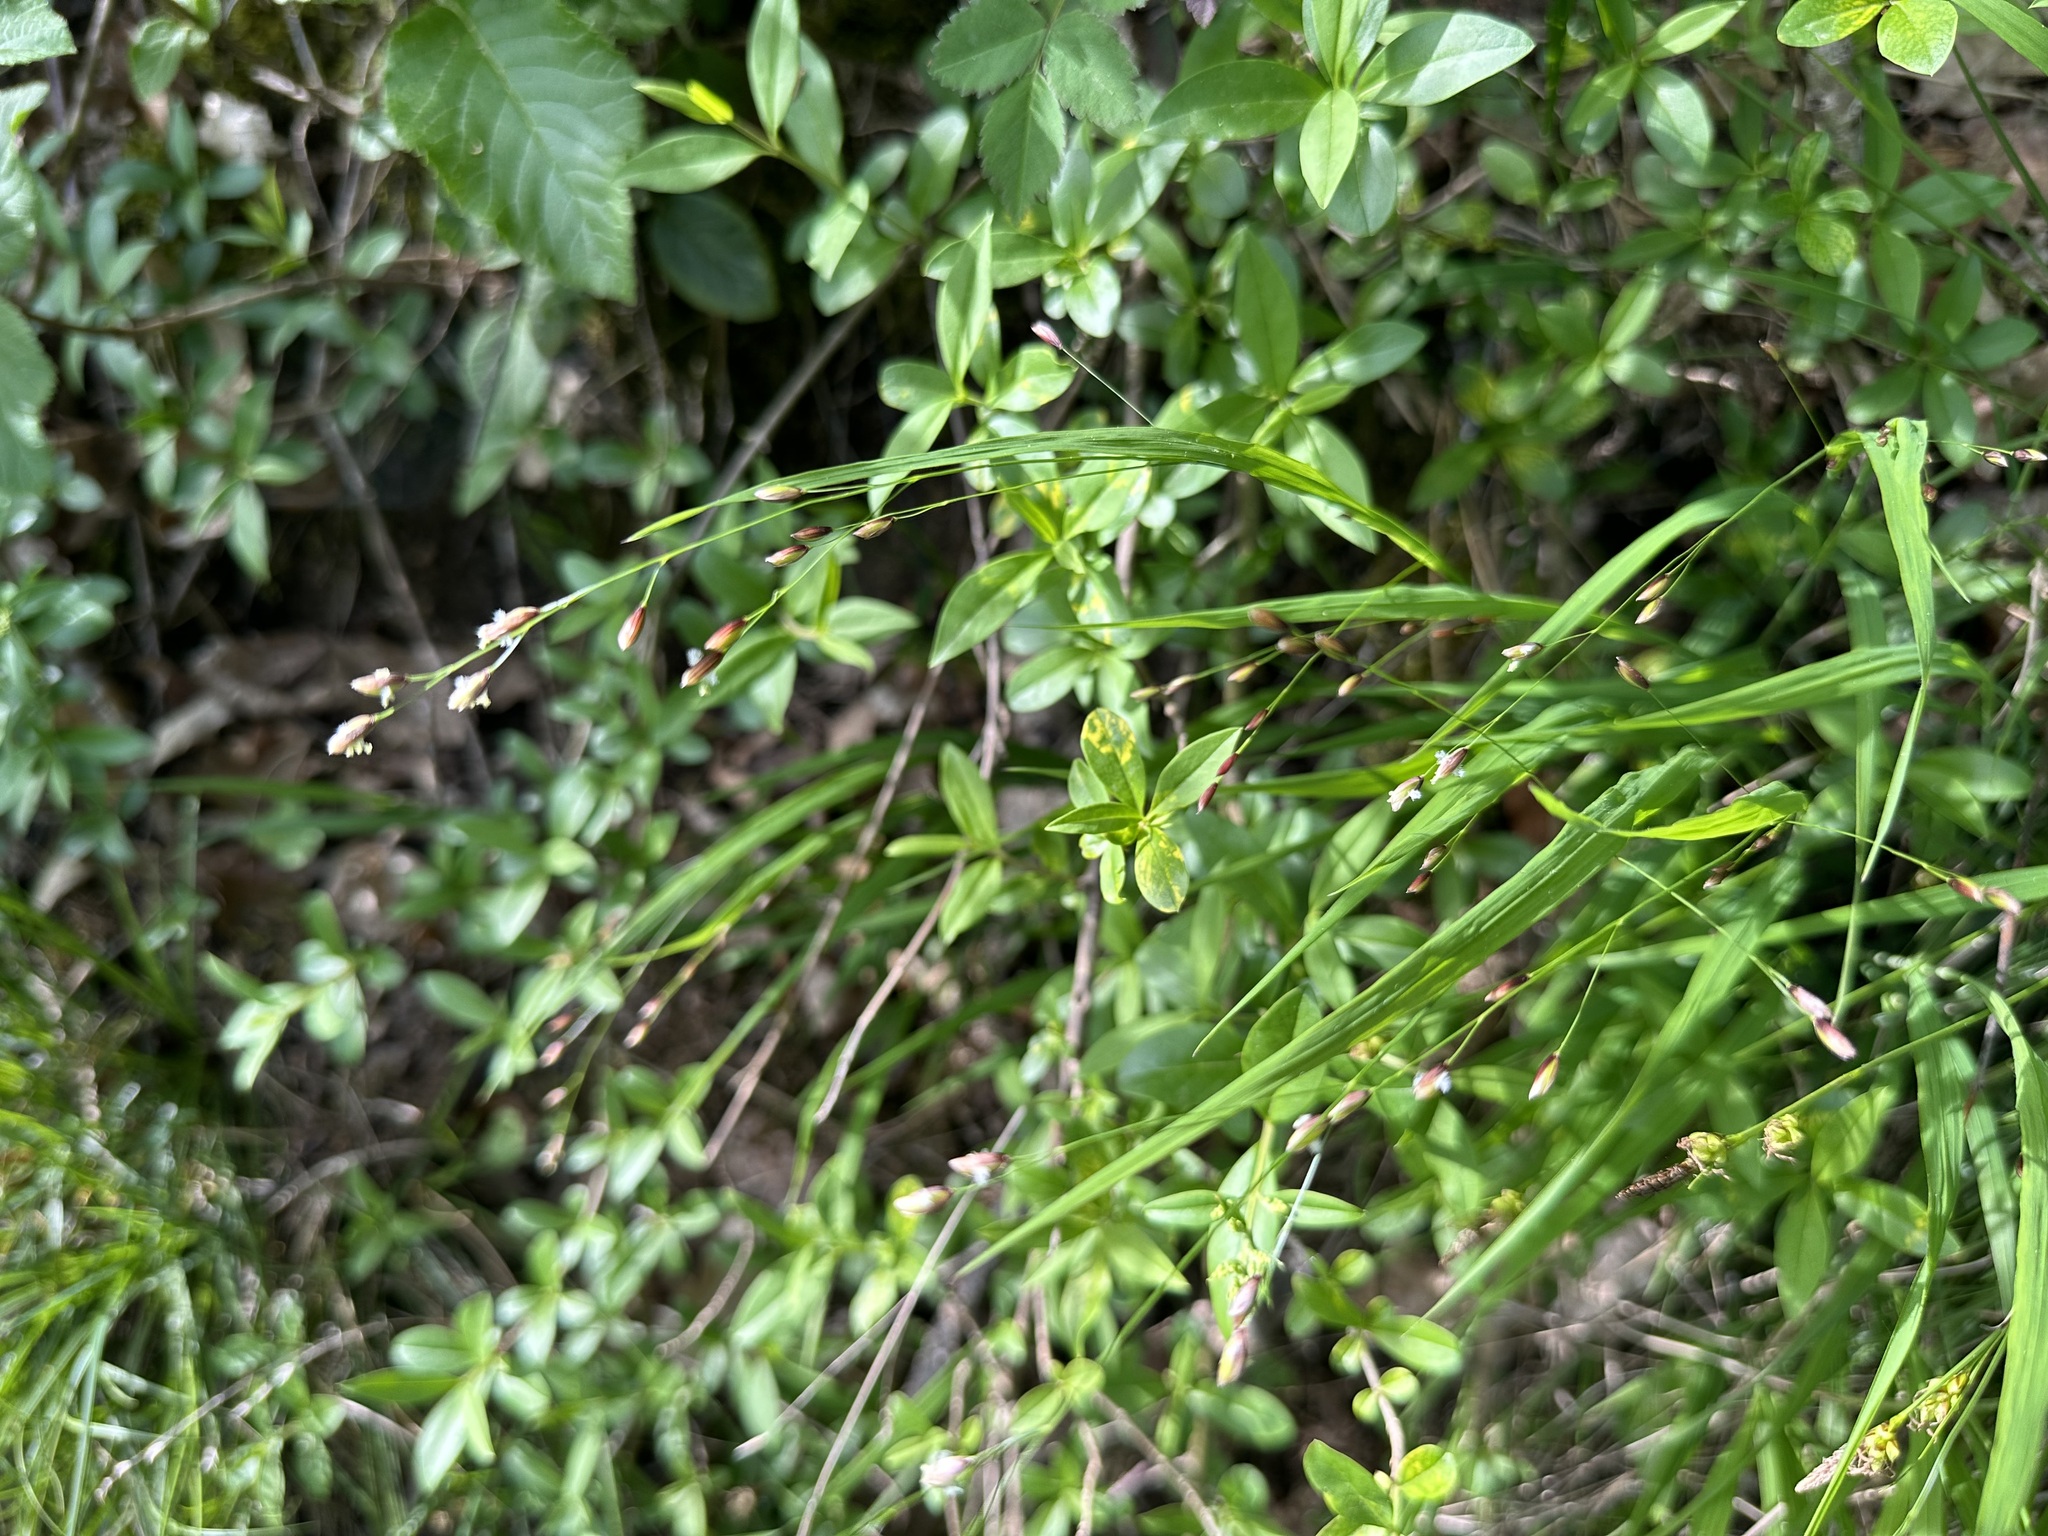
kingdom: Plantae
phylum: Tracheophyta
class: Liliopsida
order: Poales
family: Poaceae
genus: Melica
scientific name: Melica uniflora
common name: Wood melick
